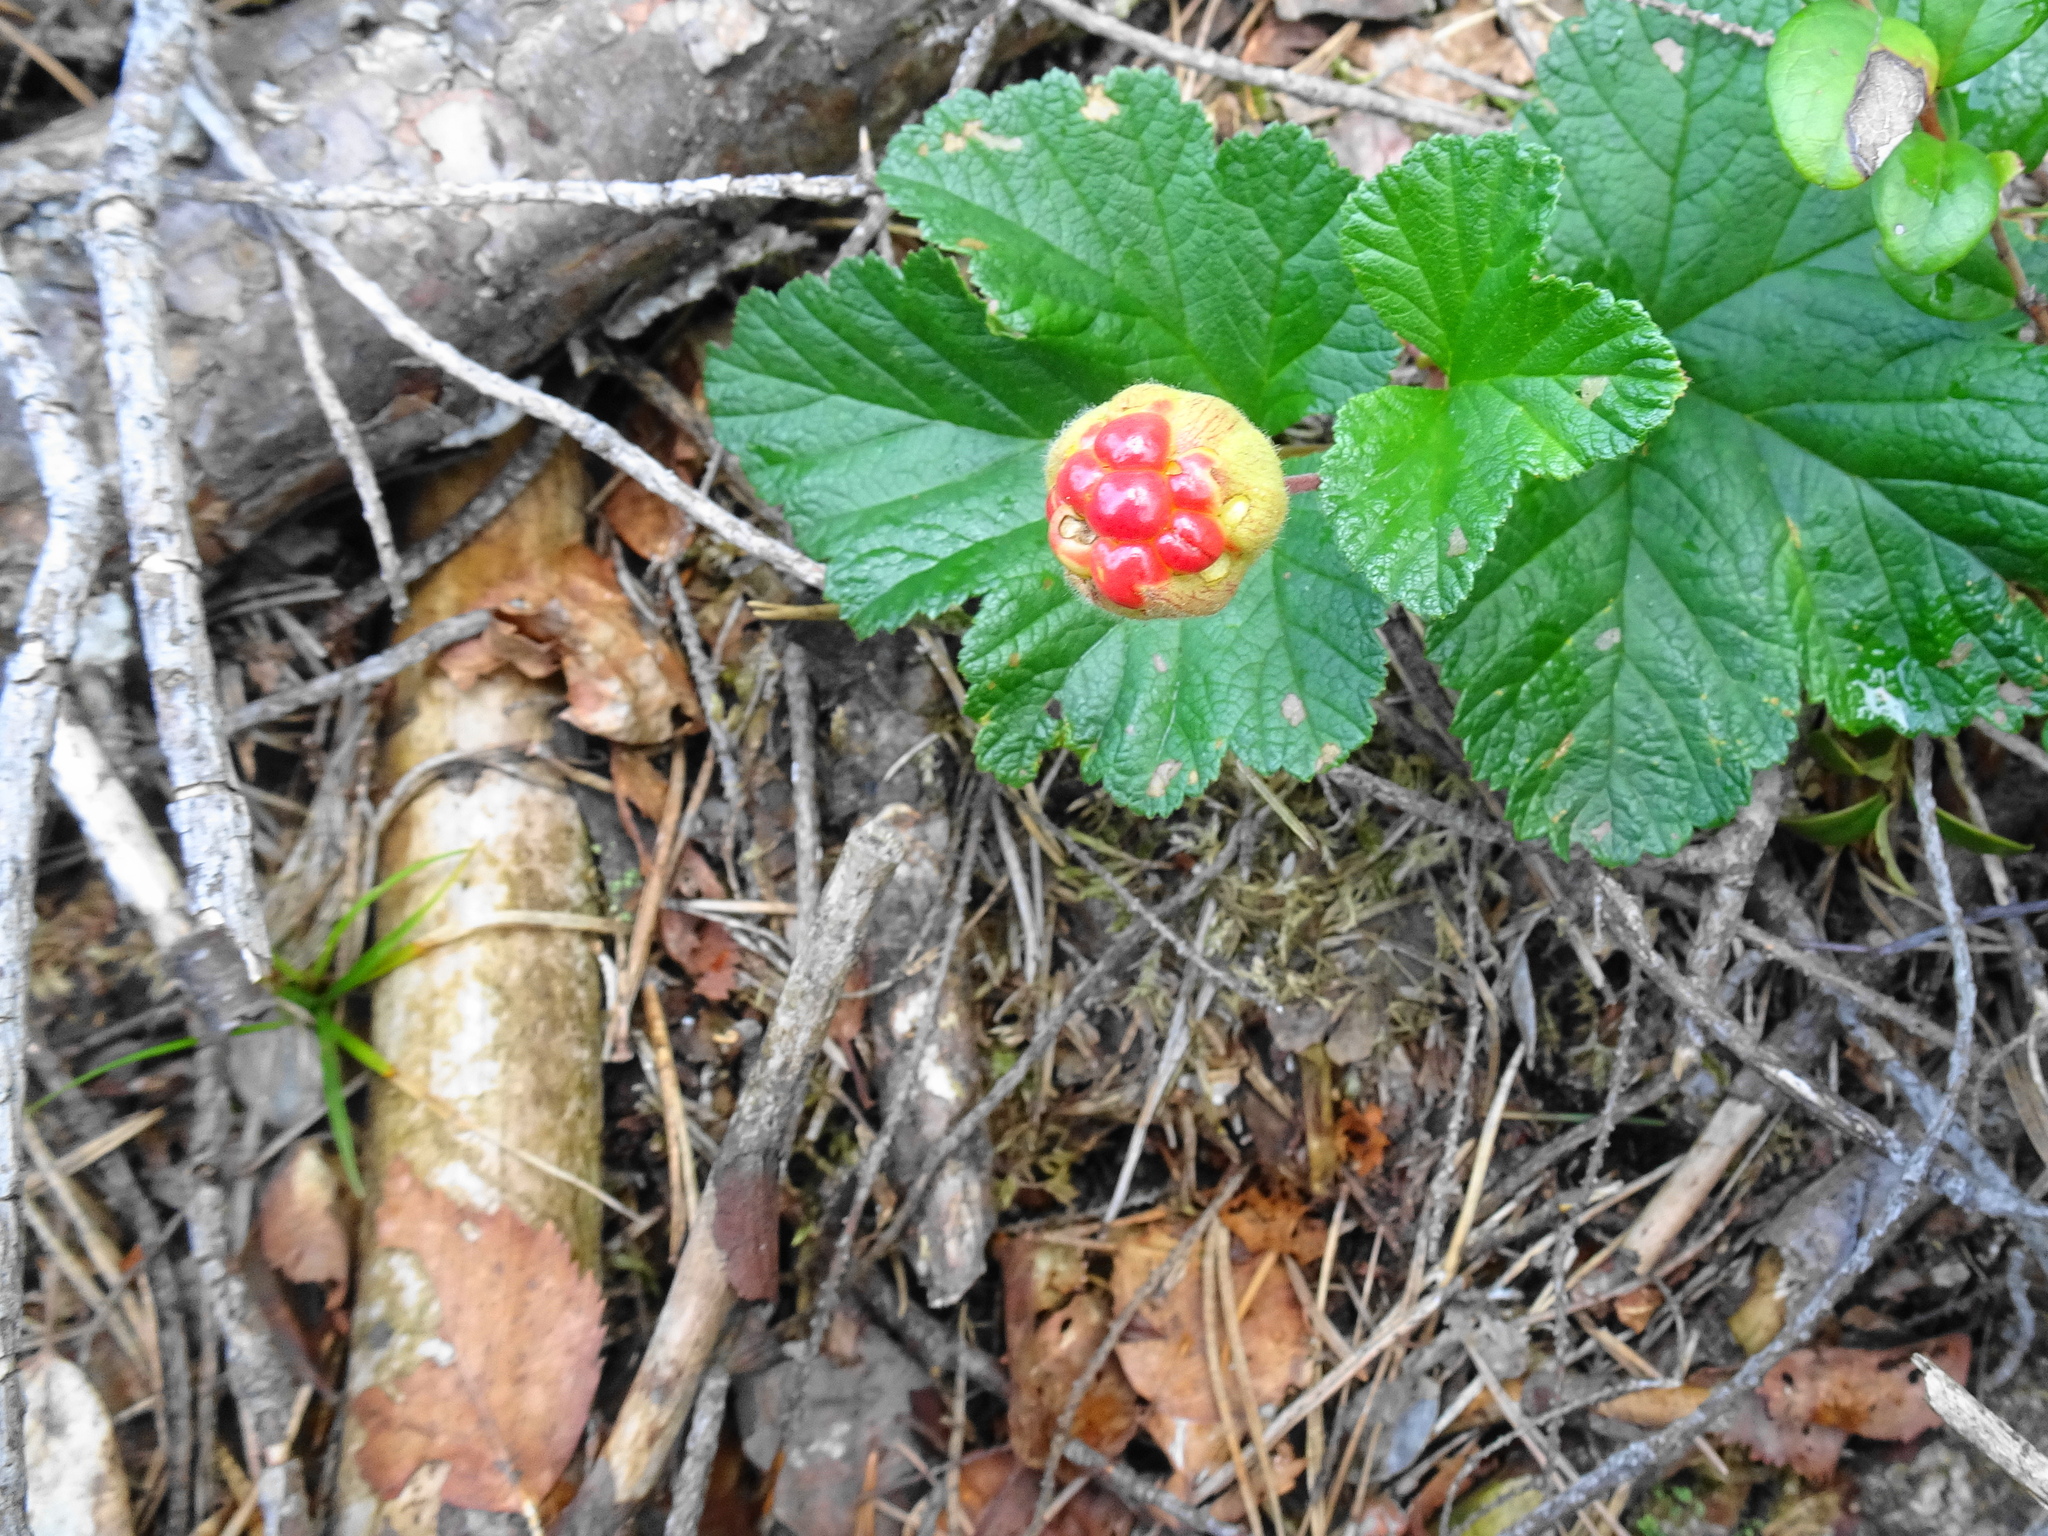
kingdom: Plantae
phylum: Tracheophyta
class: Magnoliopsida
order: Rosales
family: Rosaceae
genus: Rubus
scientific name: Rubus chamaemorus
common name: Cloudberry
